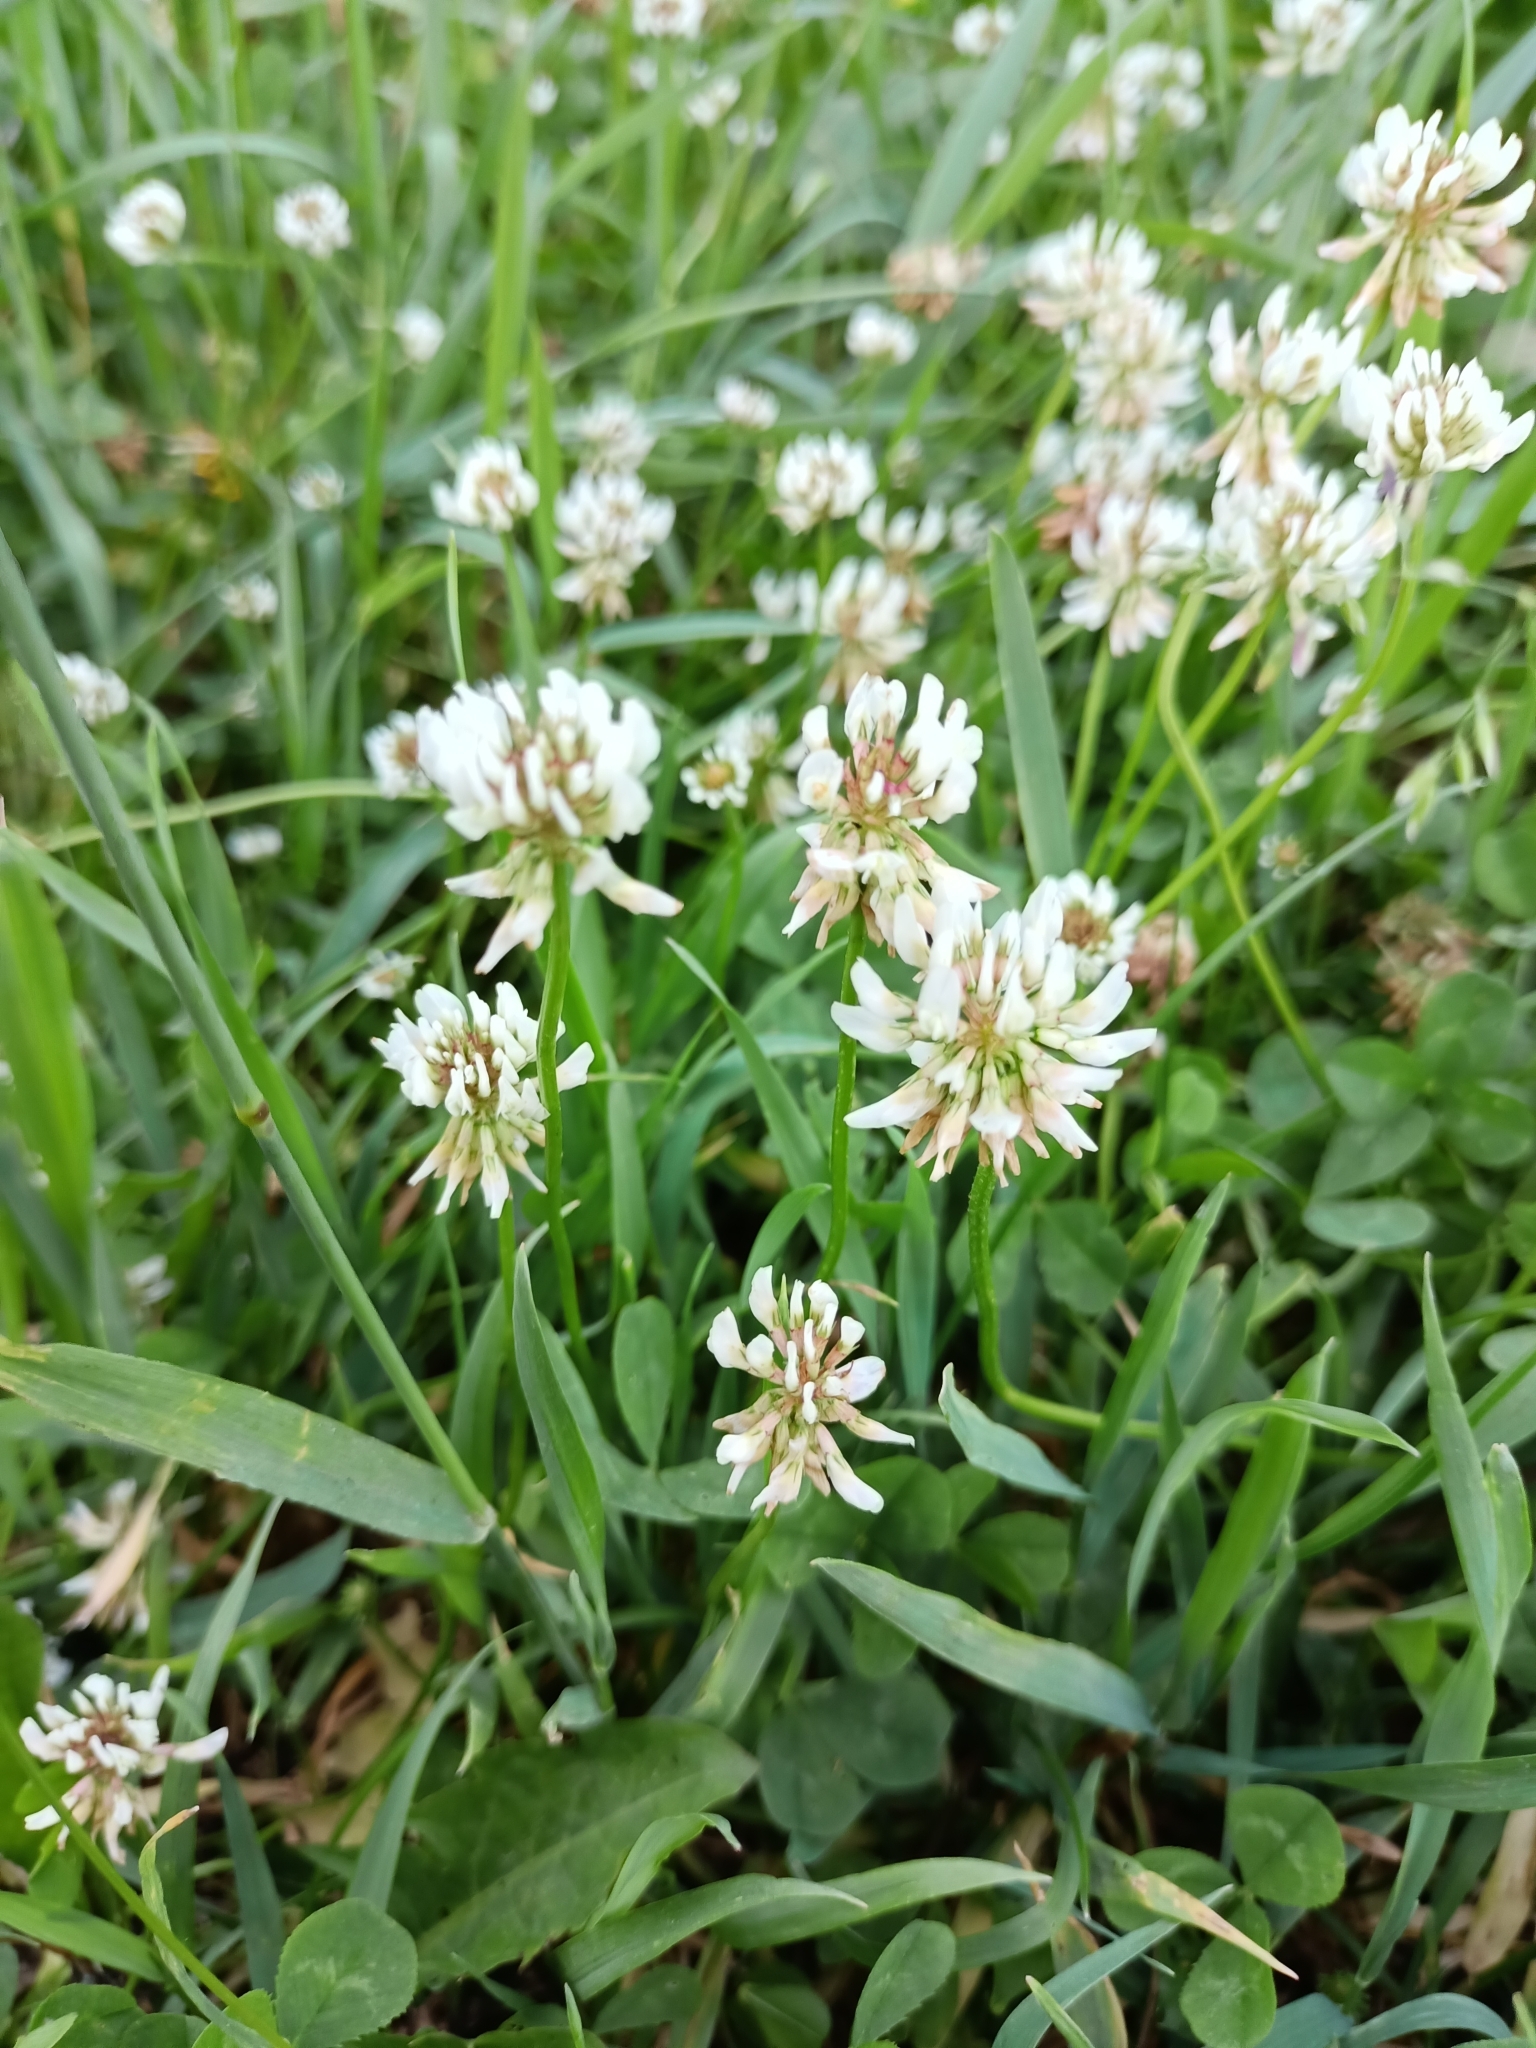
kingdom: Plantae
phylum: Tracheophyta
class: Magnoliopsida
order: Fabales
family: Fabaceae
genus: Trifolium
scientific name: Trifolium repens
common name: White clover
